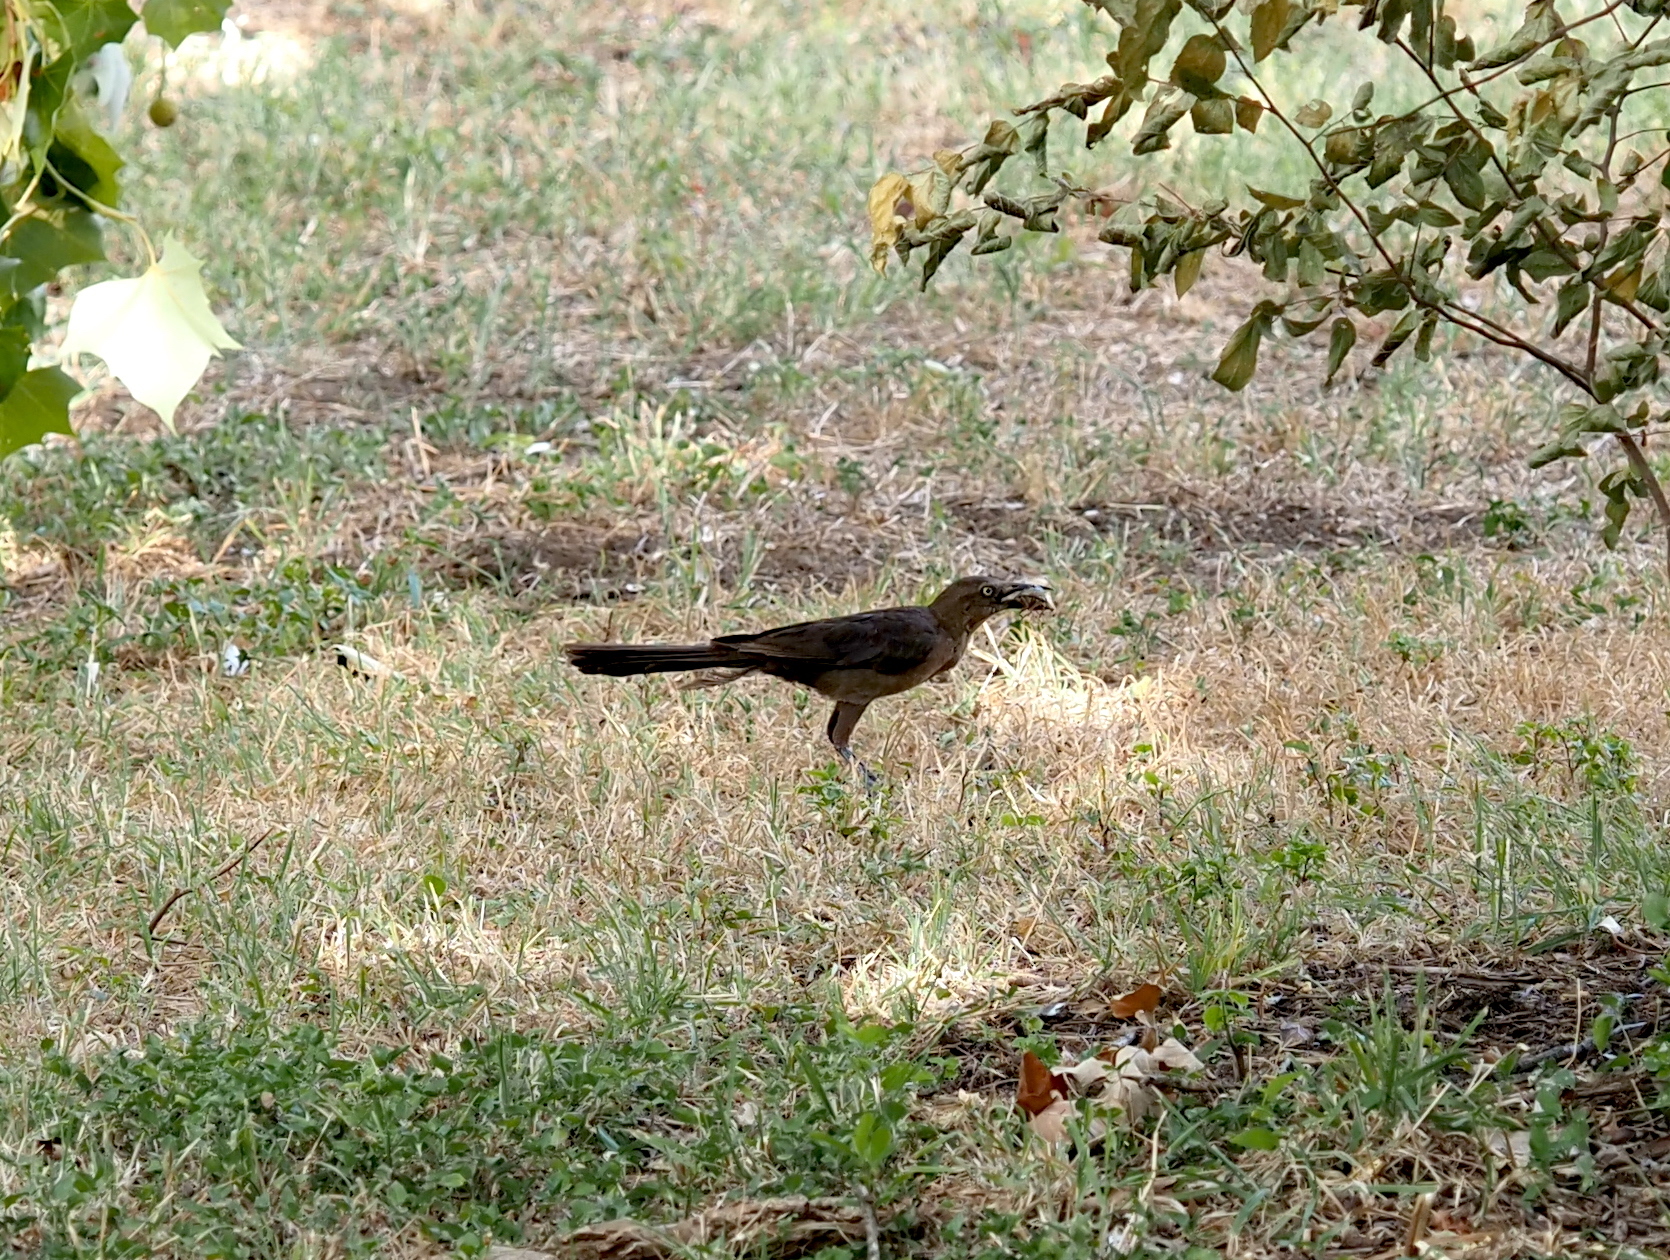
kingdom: Animalia
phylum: Chordata
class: Aves
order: Passeriformes
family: Icteridae
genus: Quiscalus
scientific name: Quiscalus mexicanus
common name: Great-tailed grackle
